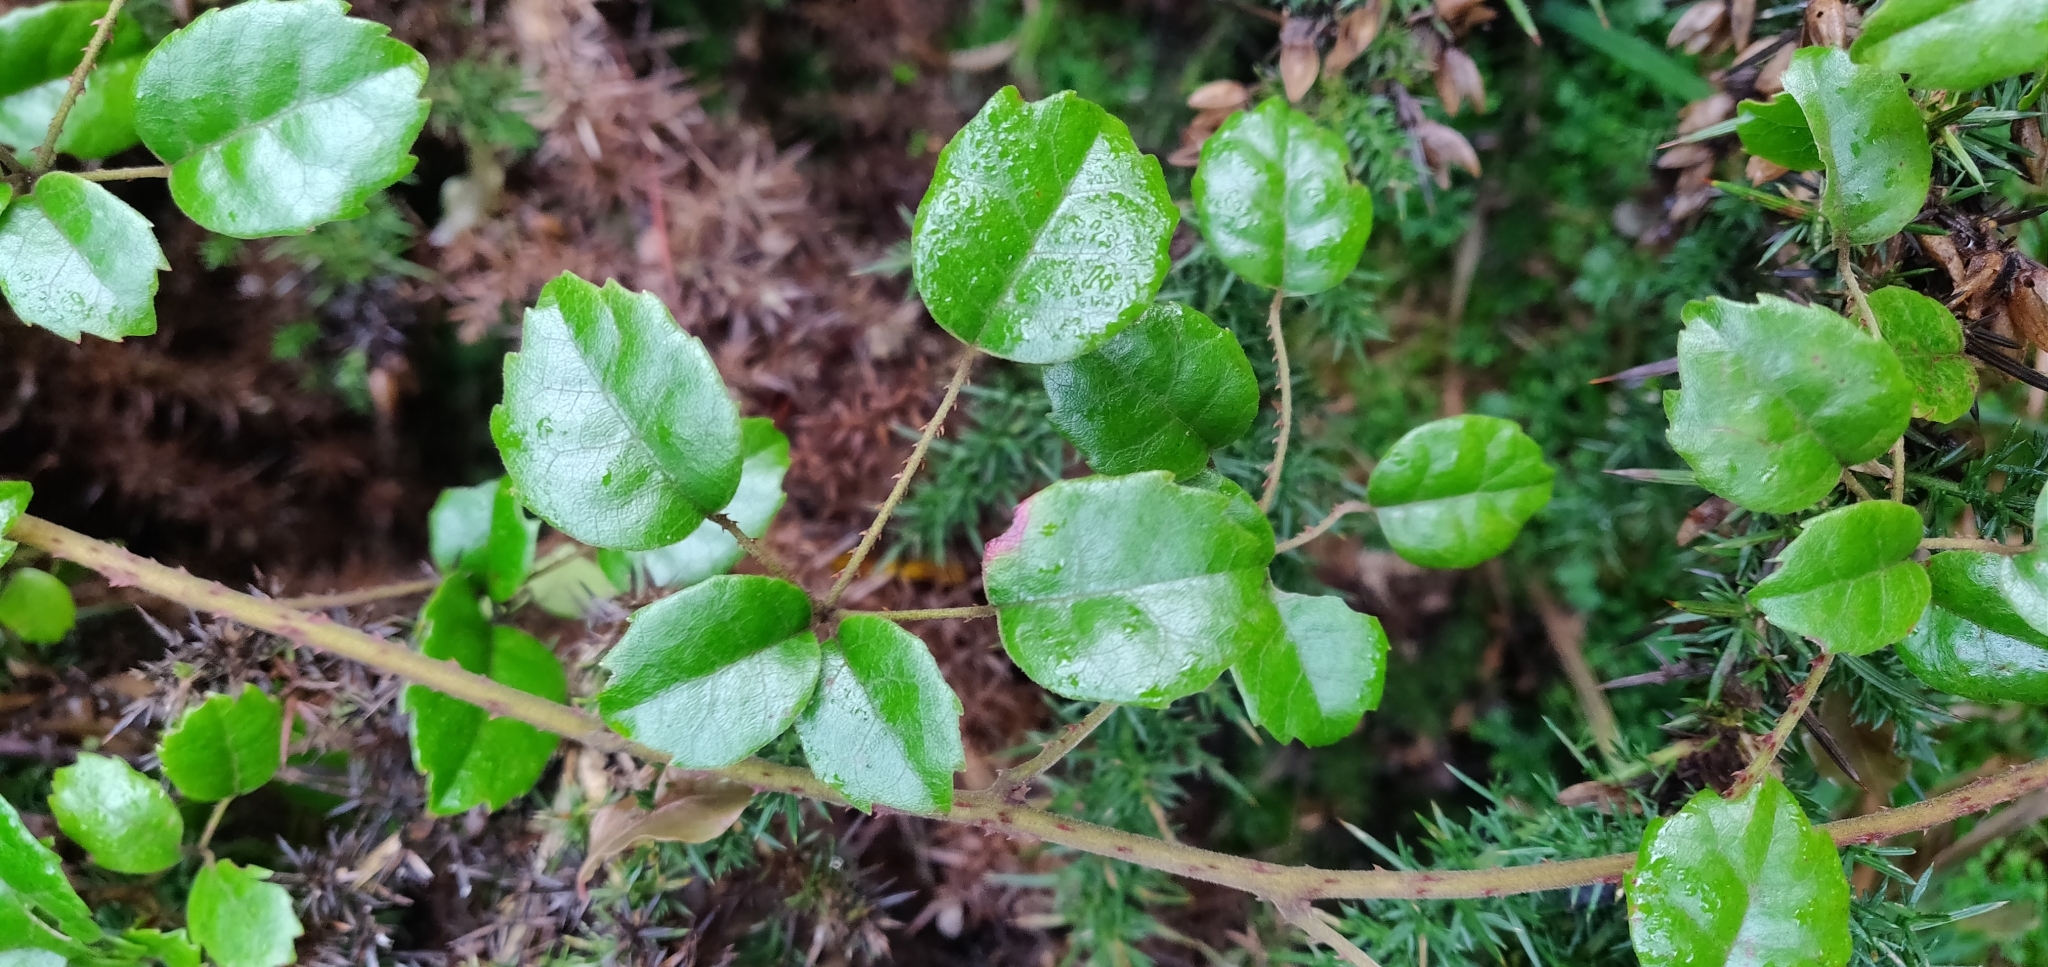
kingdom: Plantae
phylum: Tracheophyta
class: Magnoliopsida
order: Rosales
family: Rosaceae
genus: Rubus
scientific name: Rubus australis
